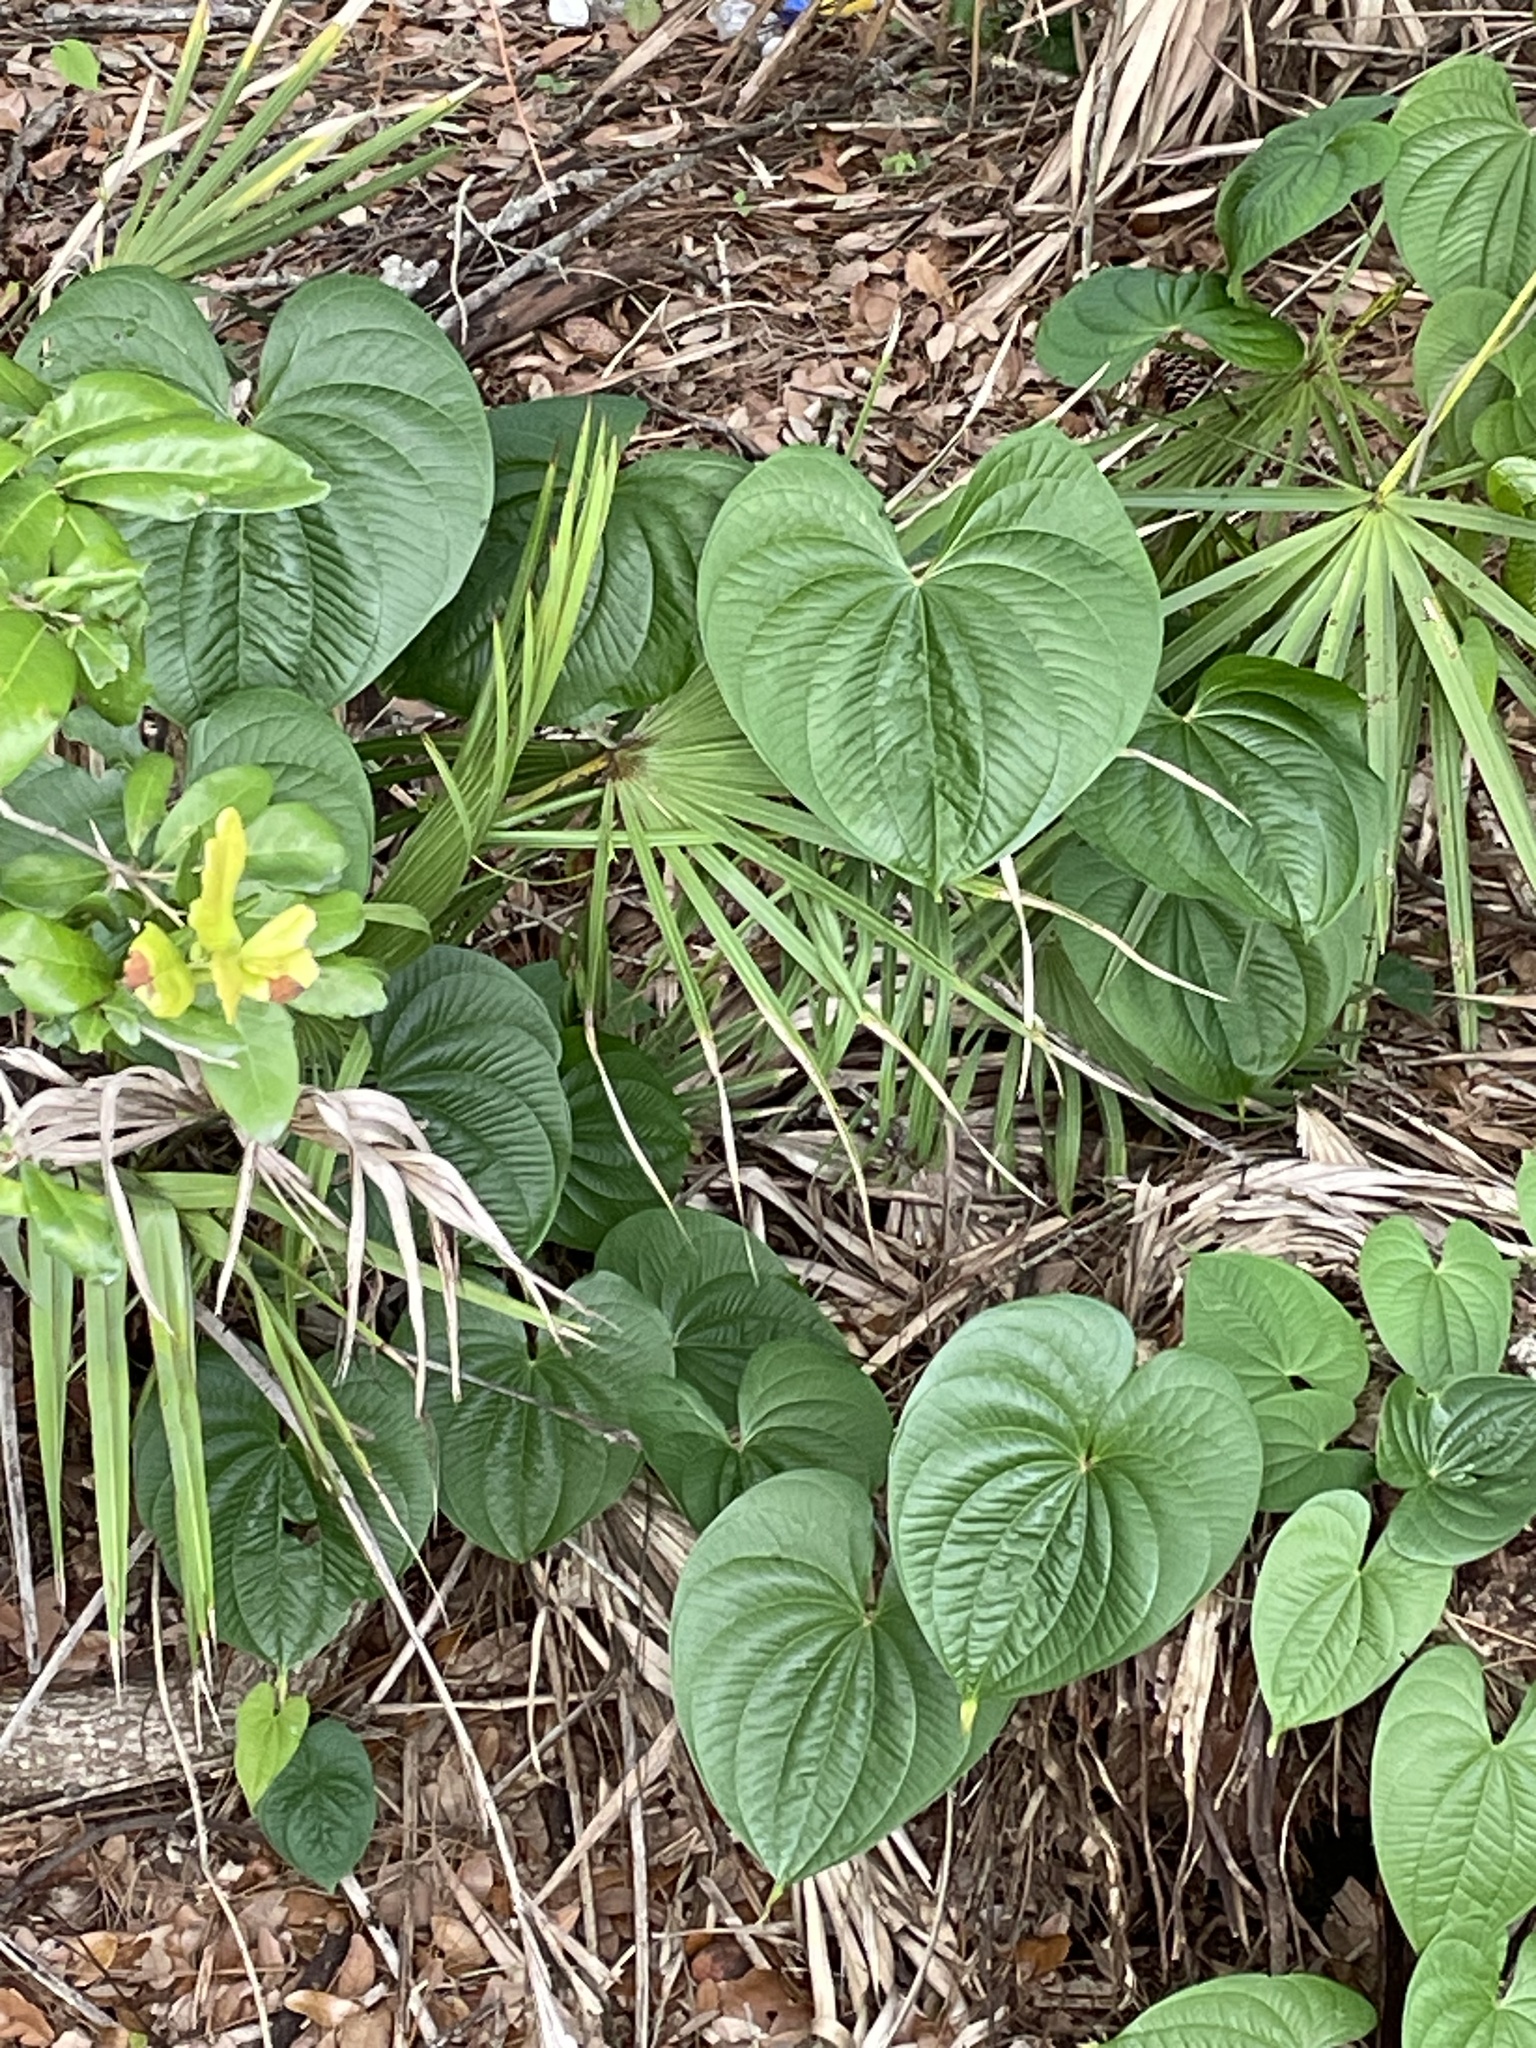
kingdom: Plantae
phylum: Tracheophyta
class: Liliopsida
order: Dioscoreales
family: Dioscoreaceae
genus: Dioscorea
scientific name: Dioscorea bulbifera
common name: Air yam
